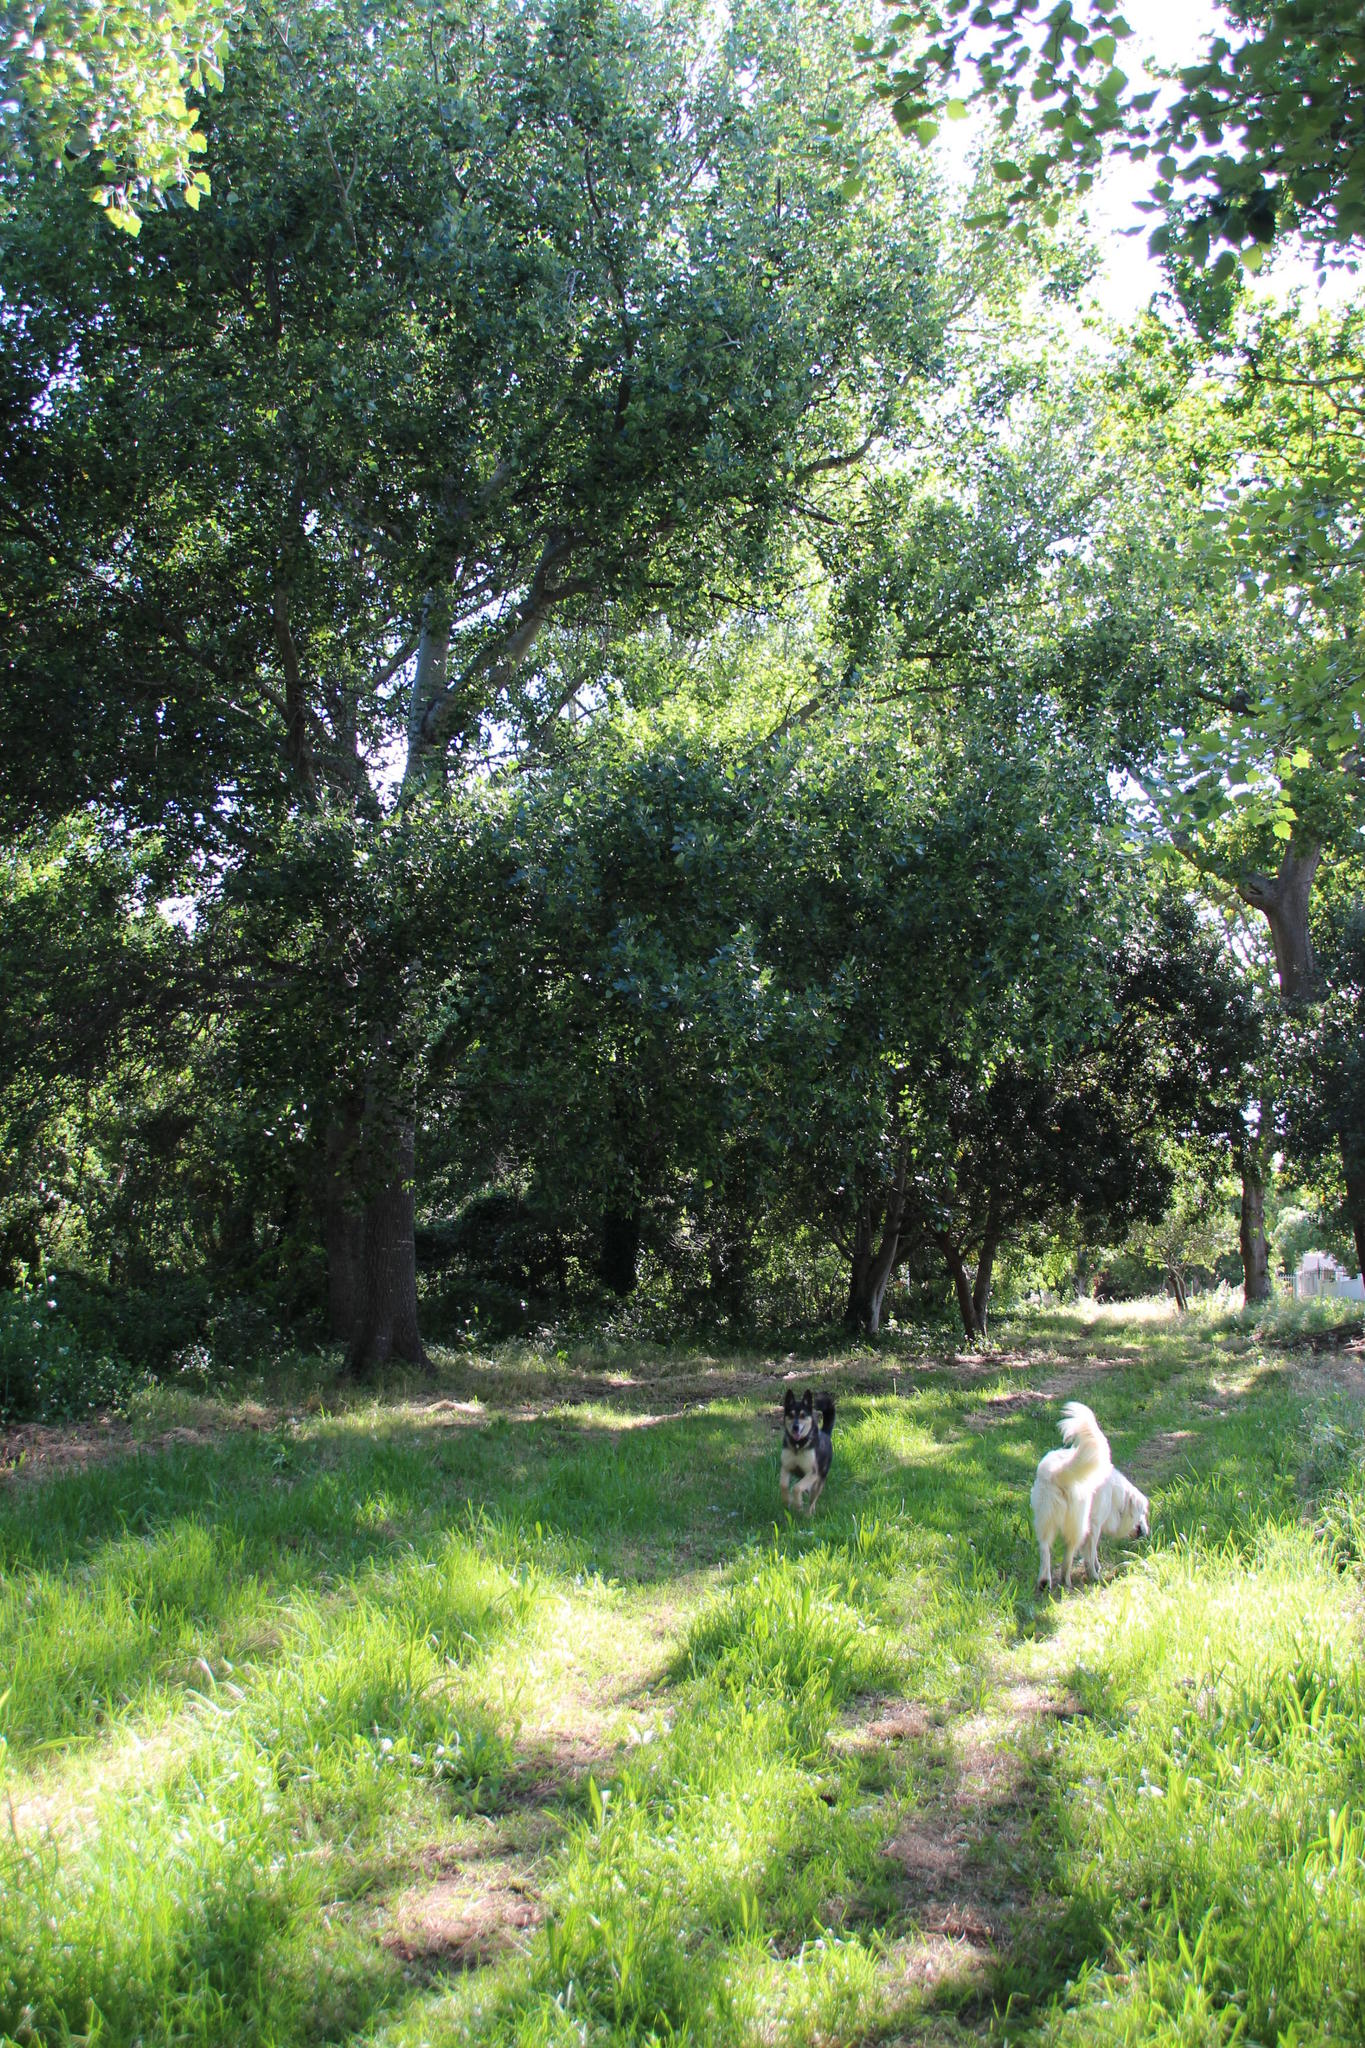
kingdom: Plantae
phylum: Tracheophyta
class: Magnoliopsida
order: Malpighiales
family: Salicaceae
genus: Populus
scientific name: Populus canescens
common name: Gray poplar
